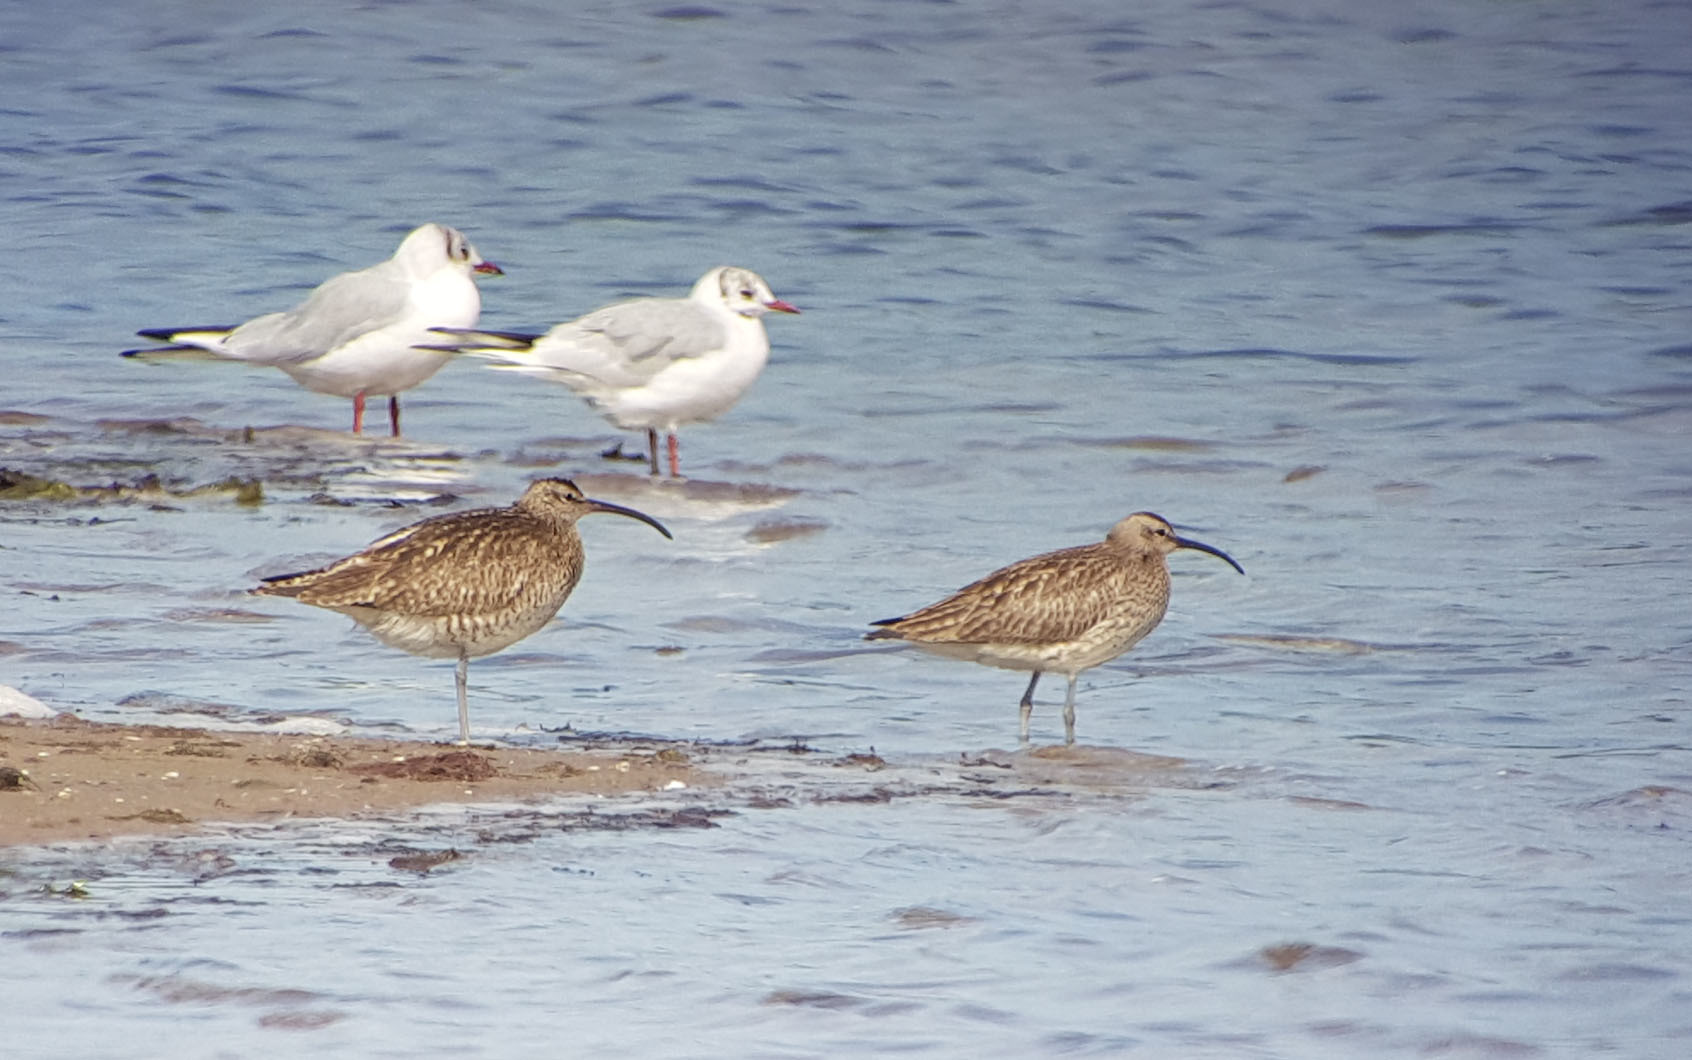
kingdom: Animalia
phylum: Chordata
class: Aves
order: Charadriiformes
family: Scolopacidae
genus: Numenius
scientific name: Numenius phaeopus
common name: Whimbrel
